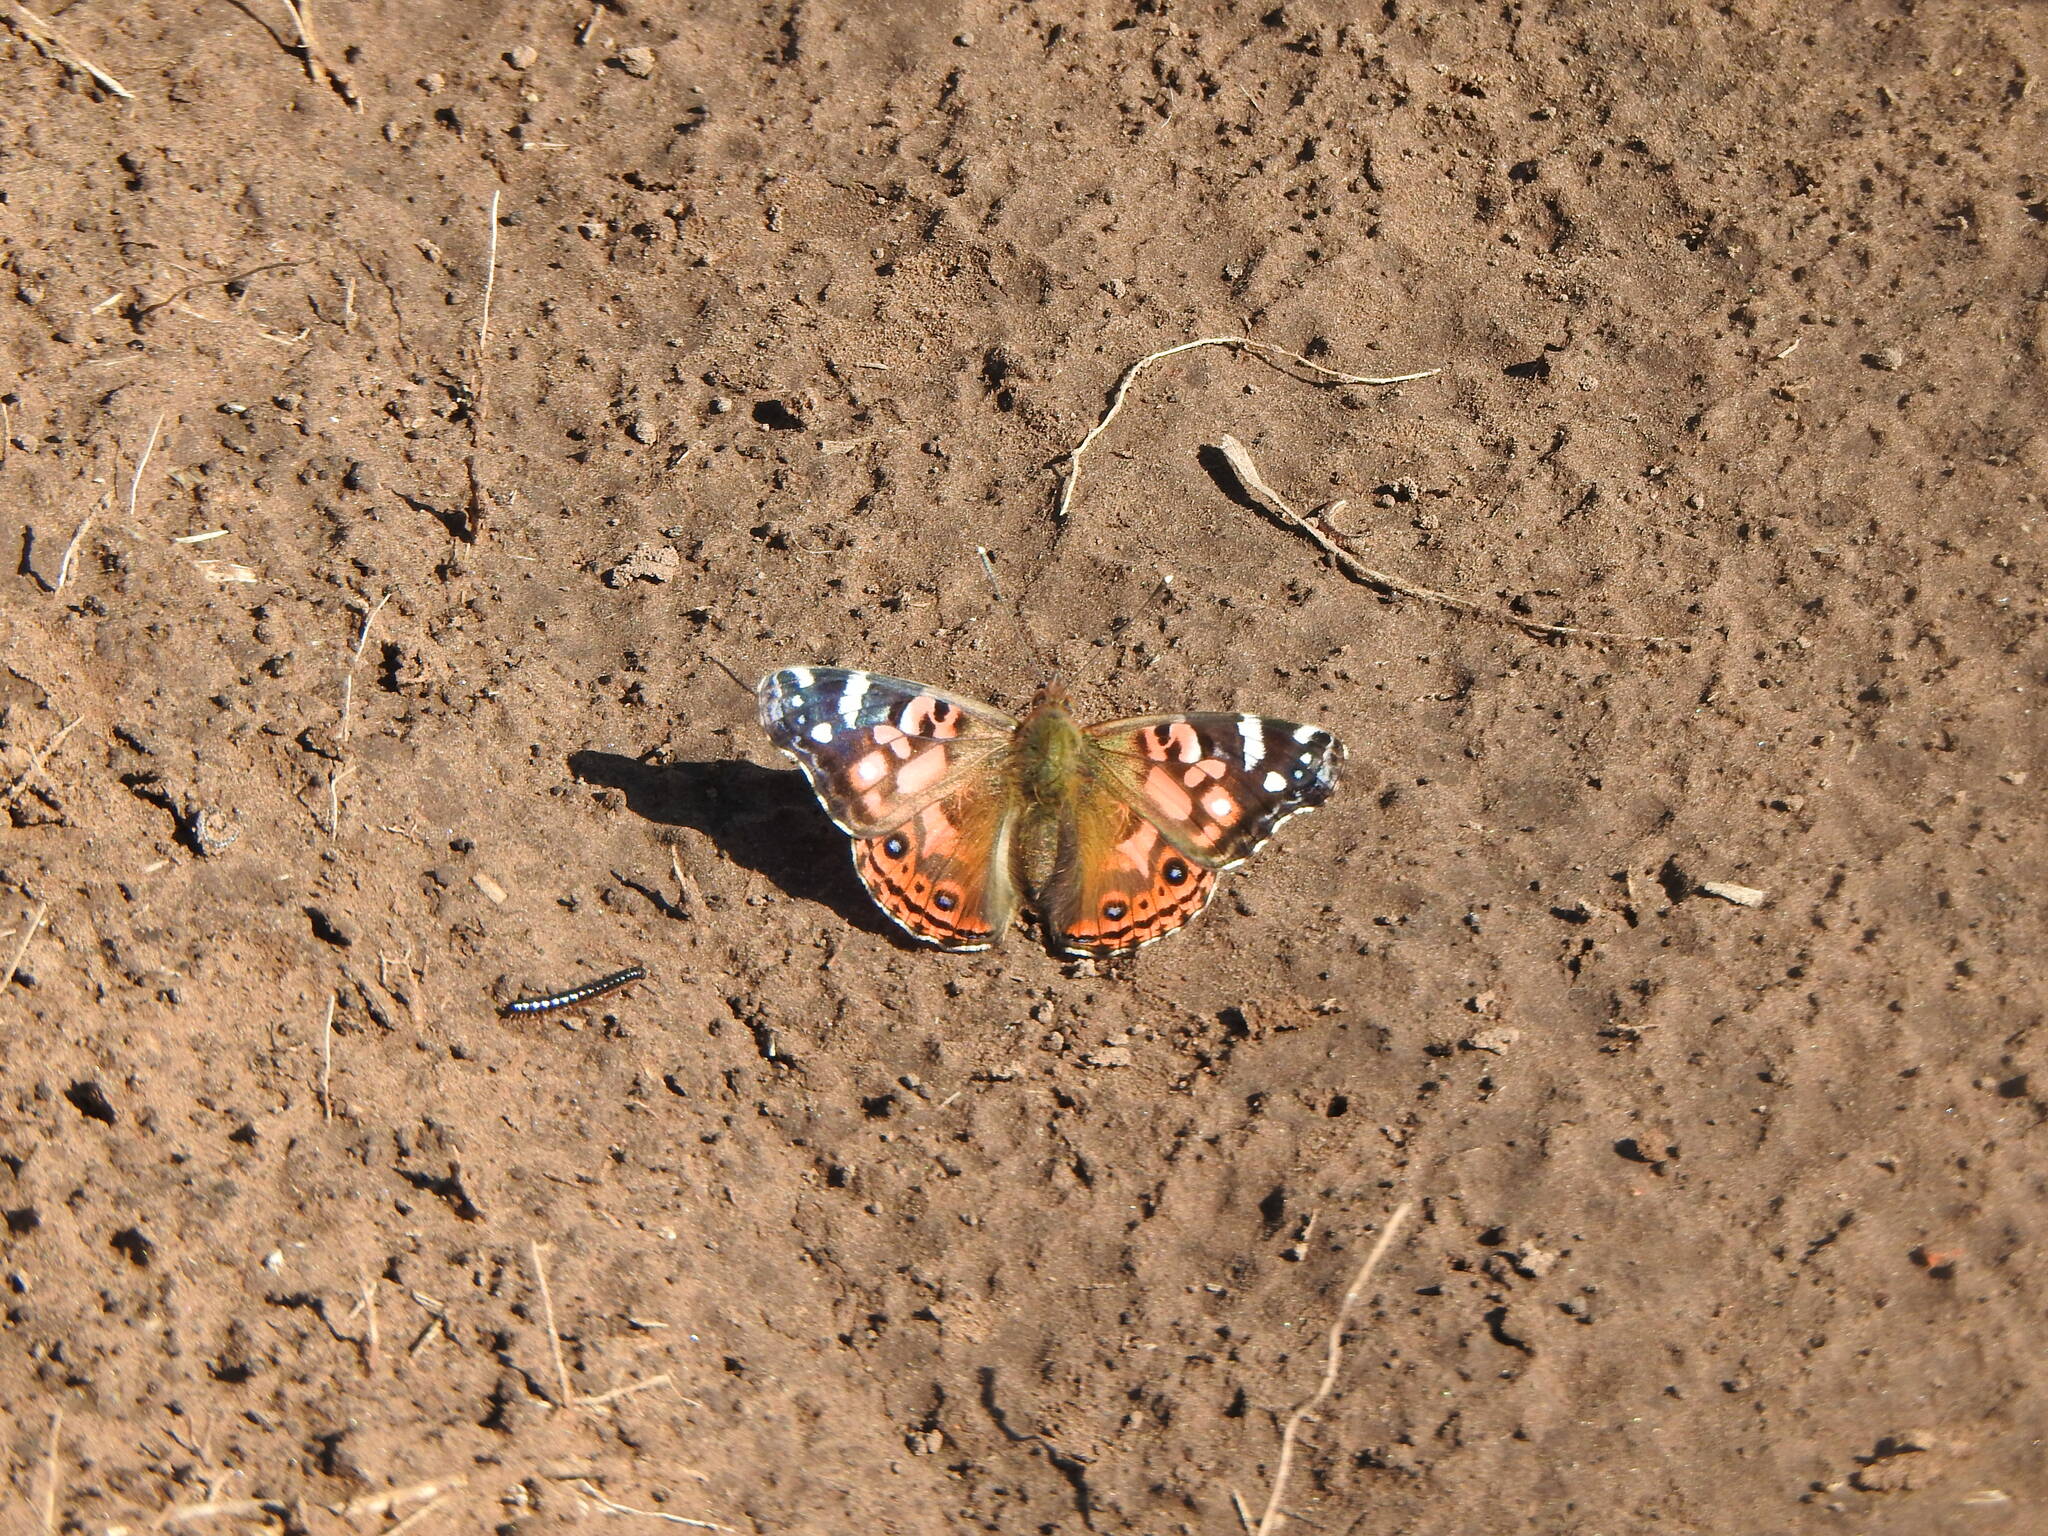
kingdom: Animalia
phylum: Arthropoda
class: Insecta
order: Lepidoptera
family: Nymphalidae
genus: Vanessa
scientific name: Vanessa braziliensis
